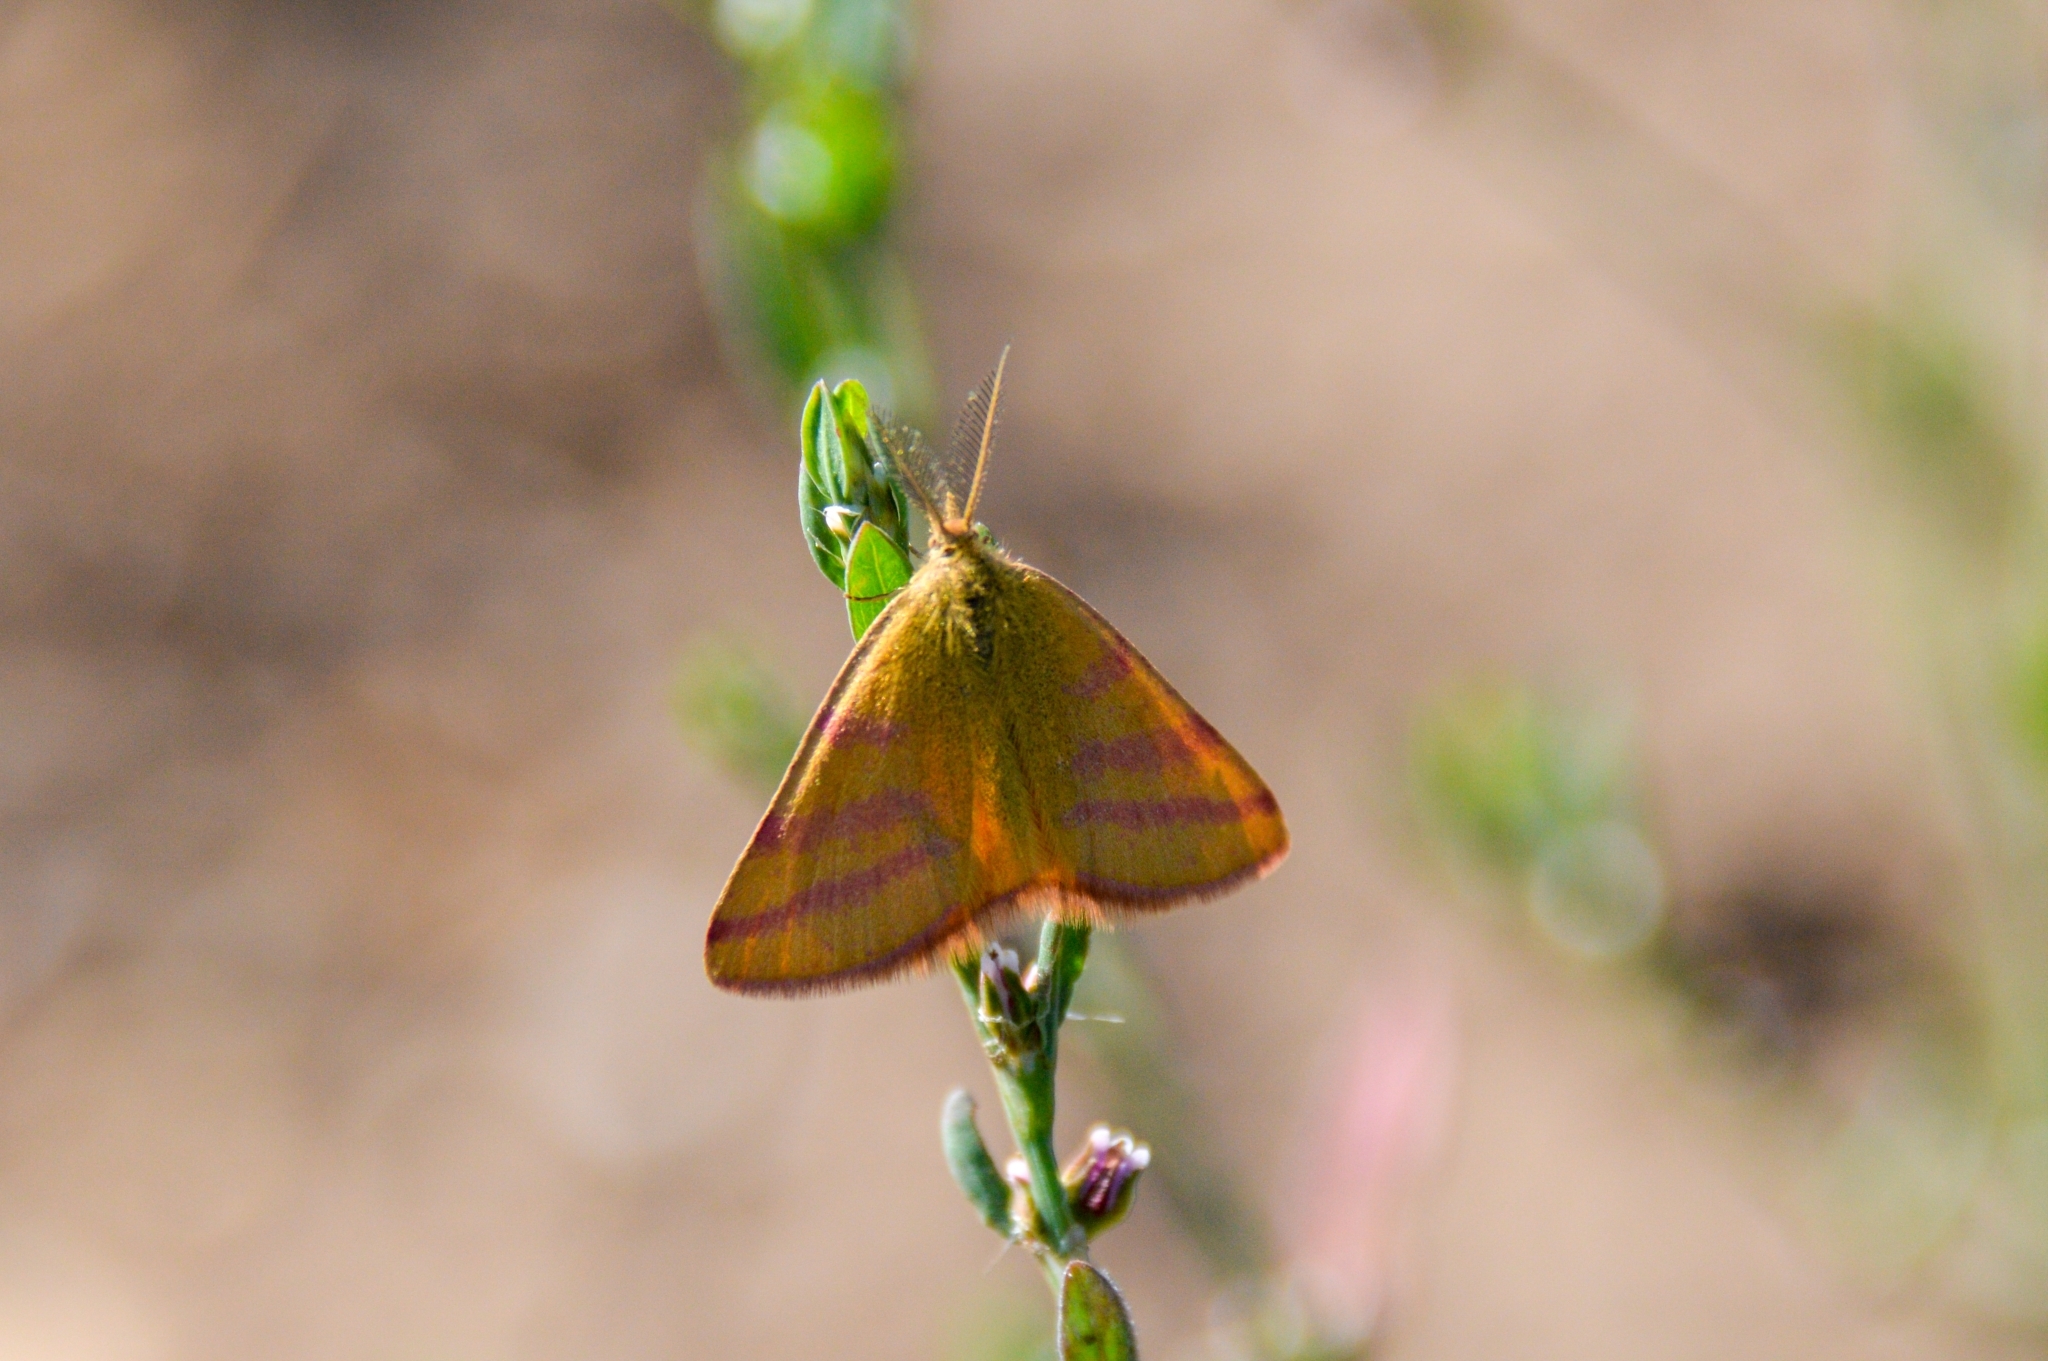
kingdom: Animalia
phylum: Arthropoda
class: Insecta
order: Lepidoptera
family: Geometridae
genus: Lythria
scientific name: Lythria purpuraria
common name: Purple-barred yellow
